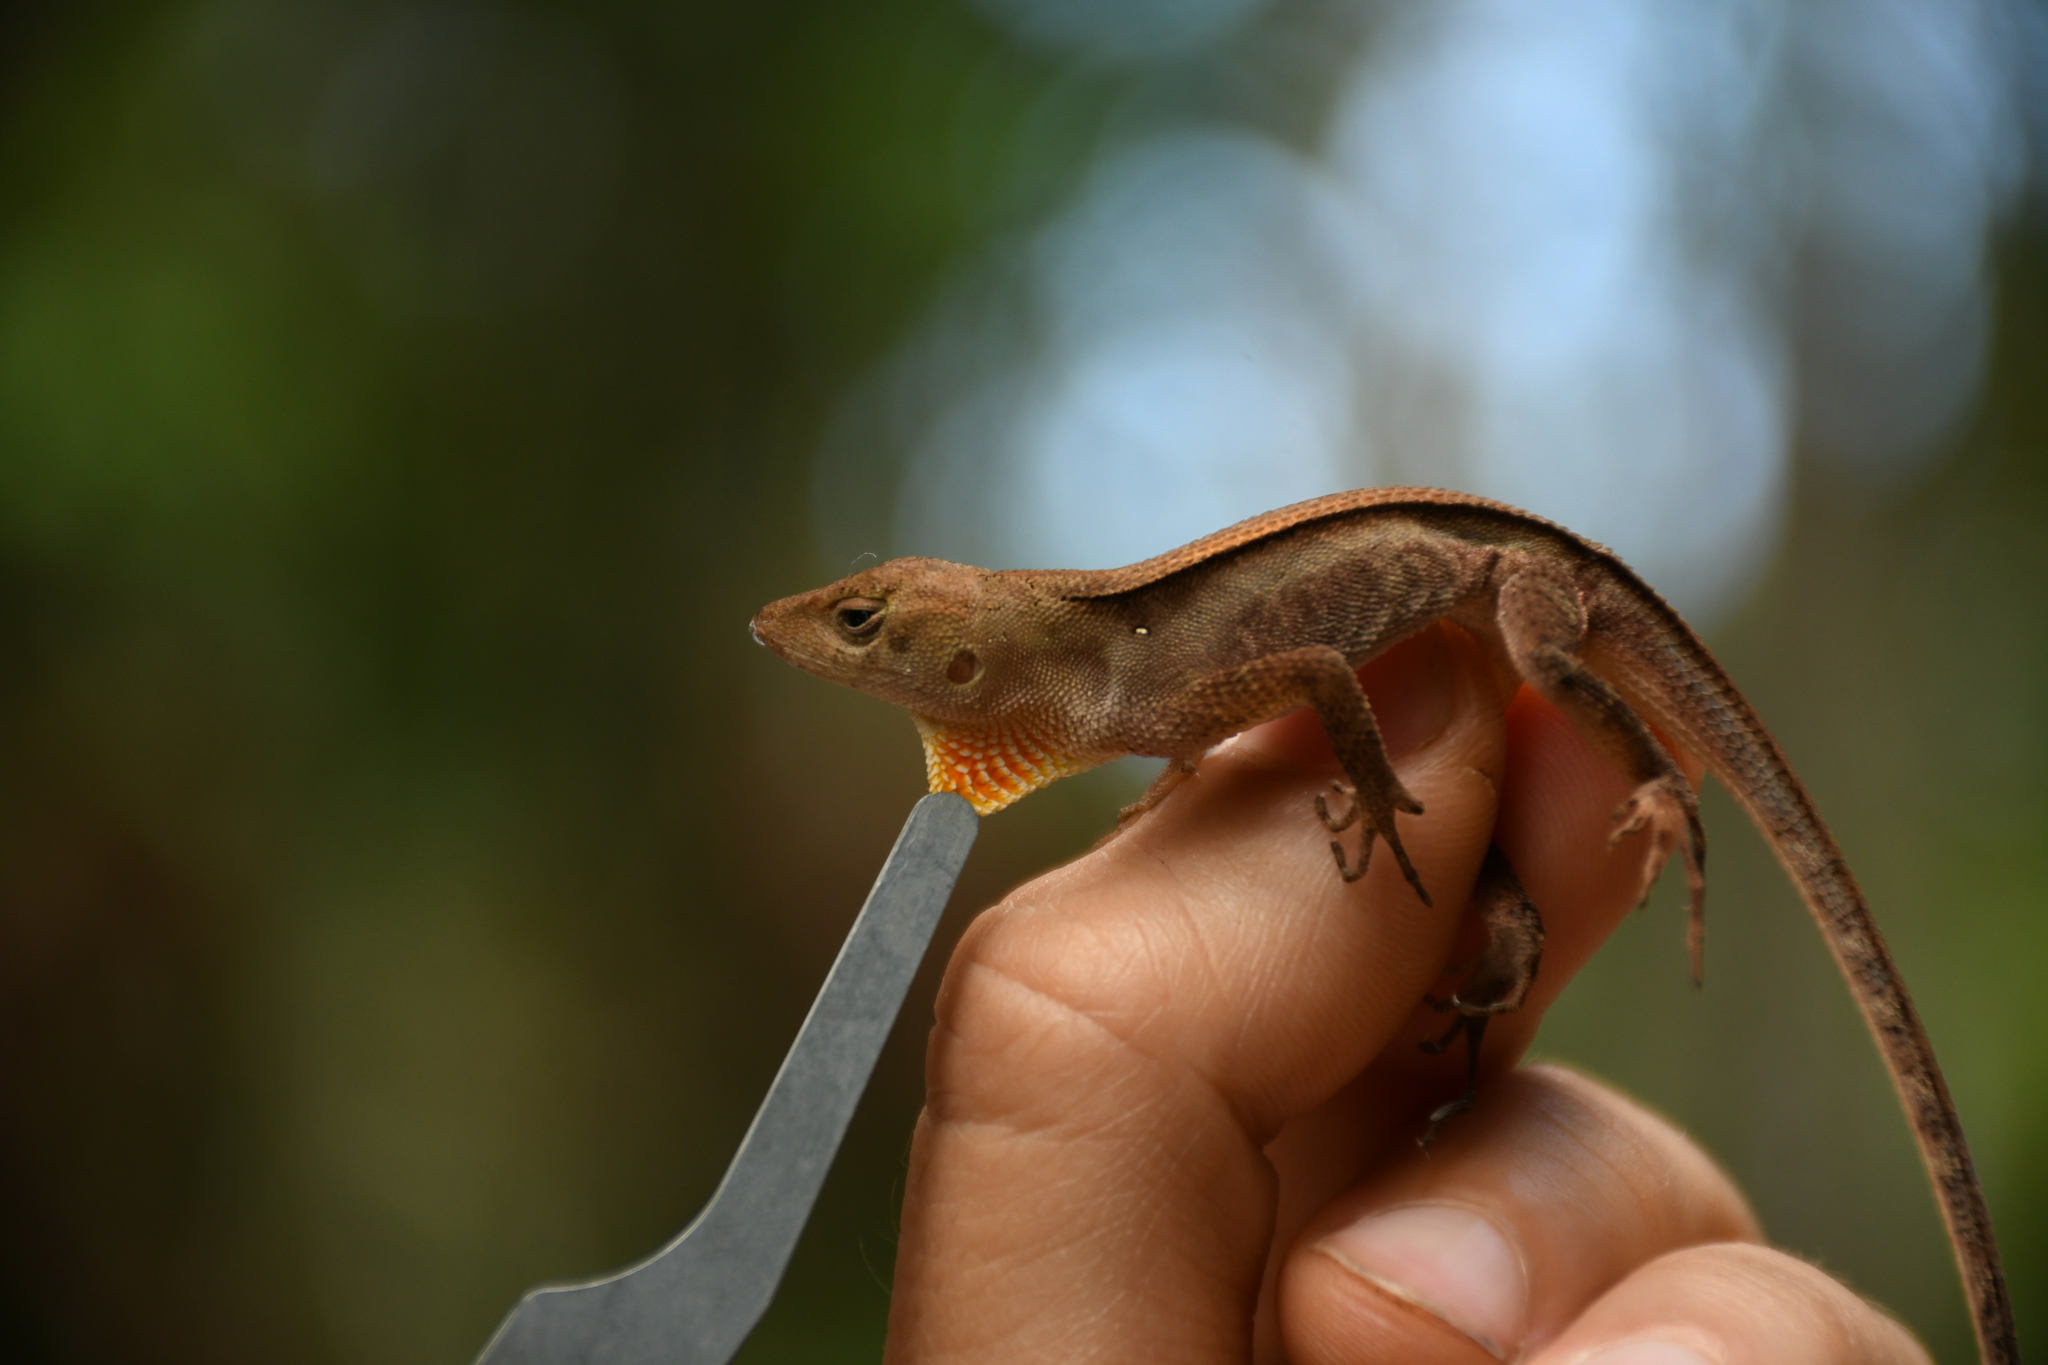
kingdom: Animalia
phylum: Chordata
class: Squamata
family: Dactyloidae
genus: Anolis
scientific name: Anolis tropidonotus
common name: Greater scaly anole
